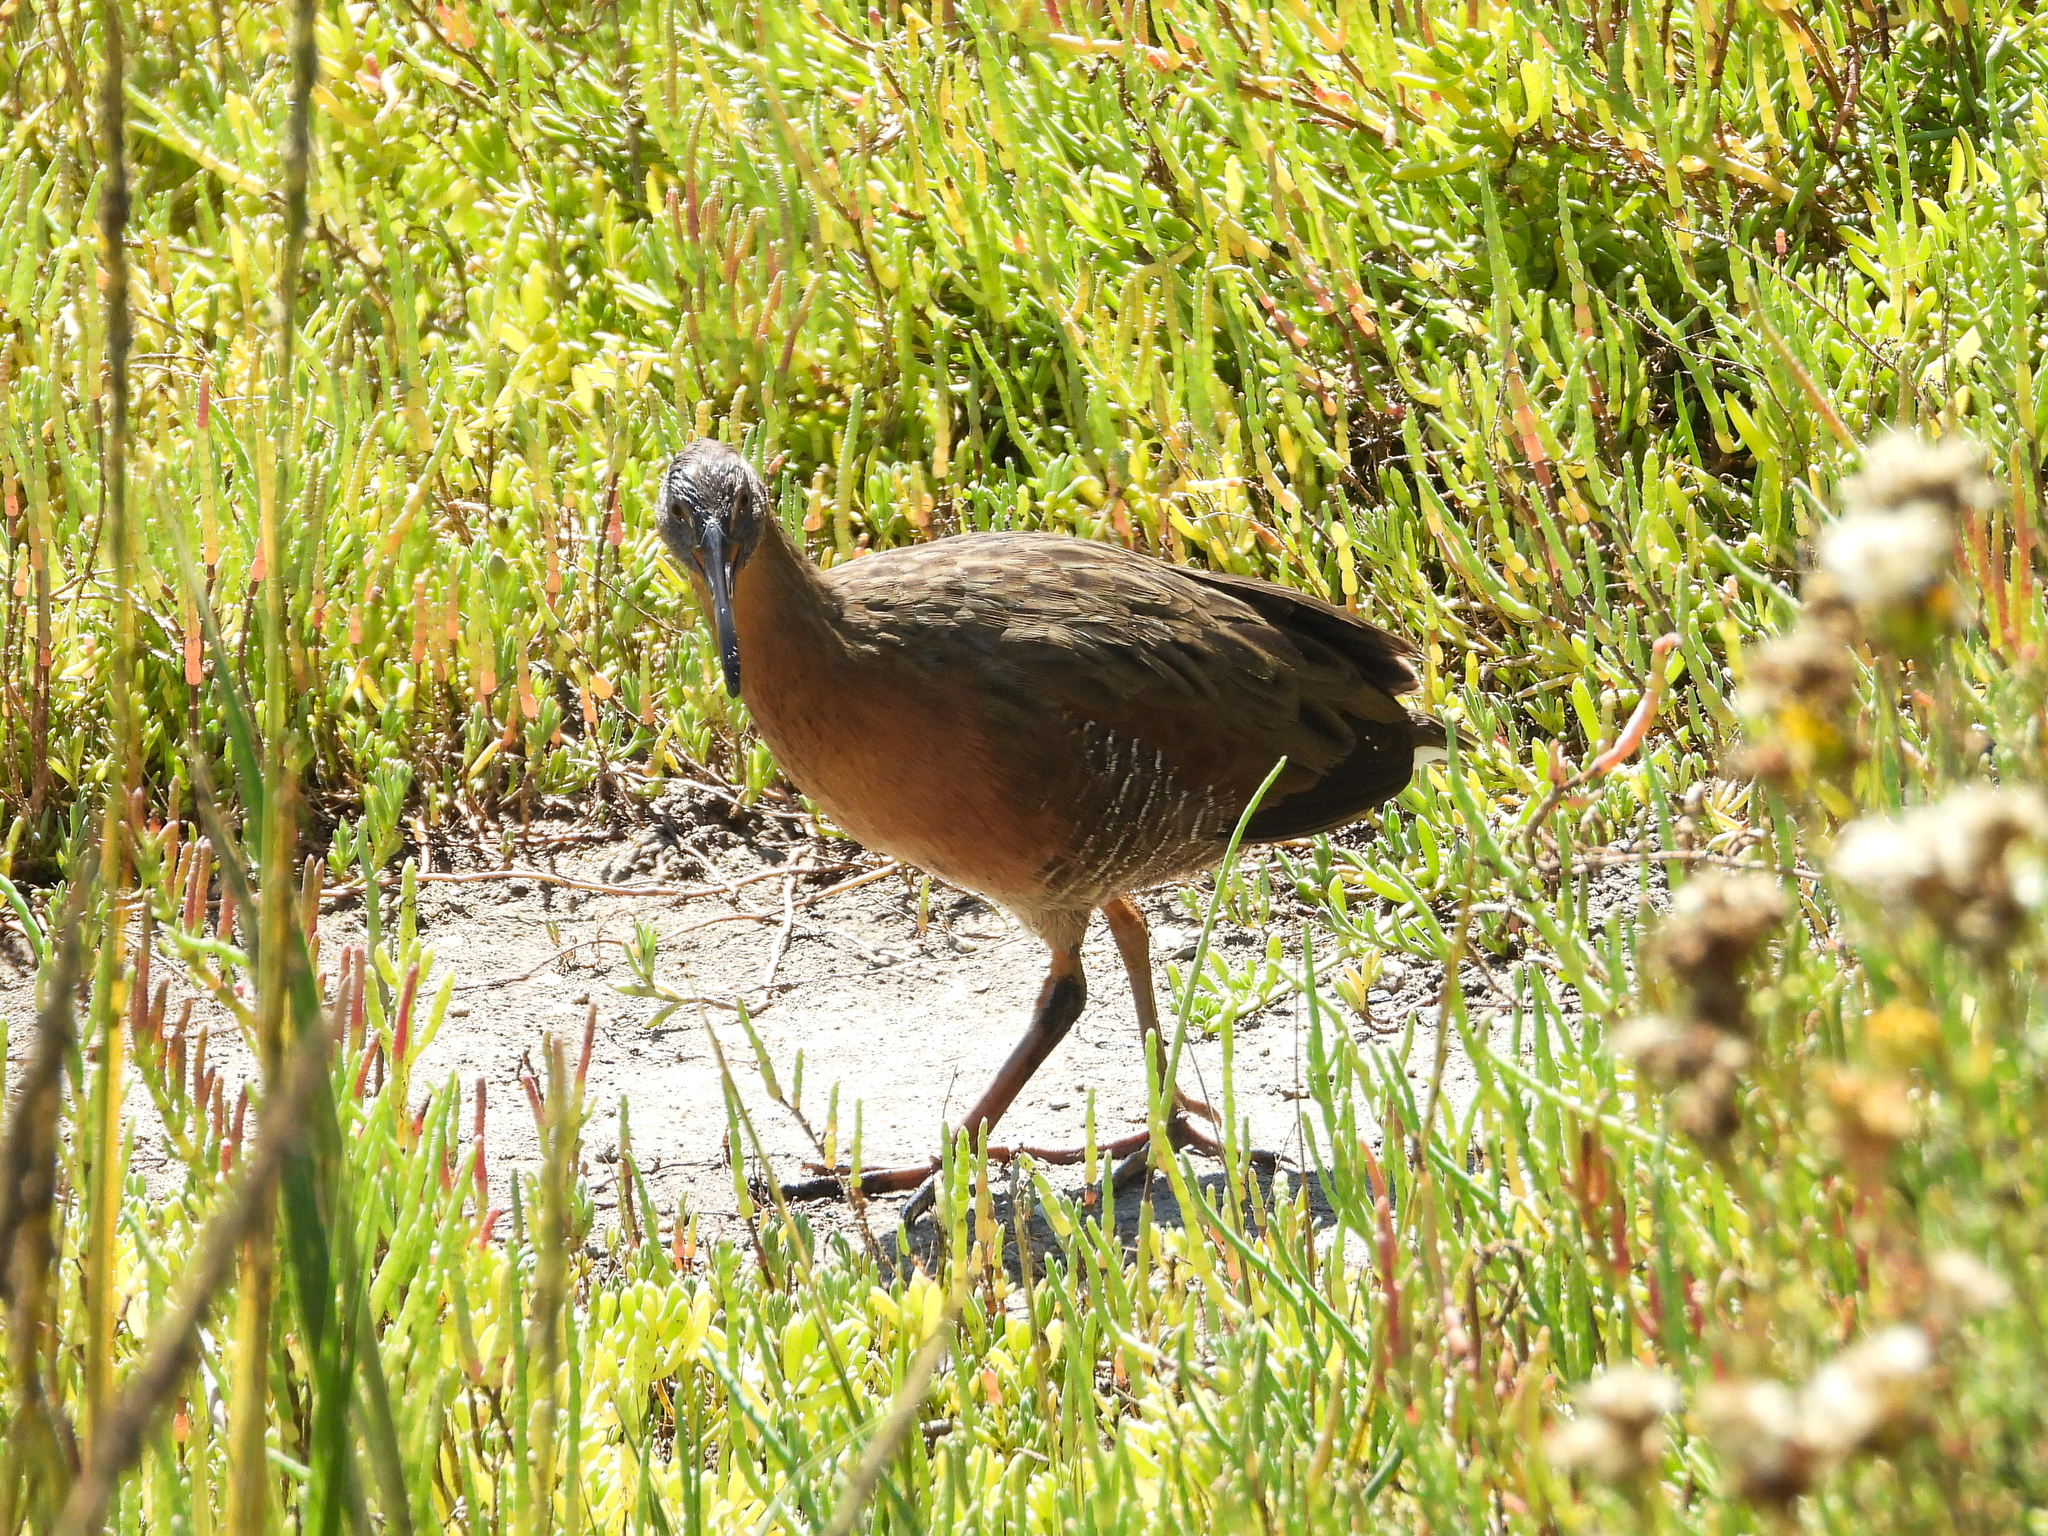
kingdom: Animalia
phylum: Chordata
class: Aves
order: Gruiformes
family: Rallidae
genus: Rallus
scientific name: Rallus obsoletus
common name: Ridgway's rail
